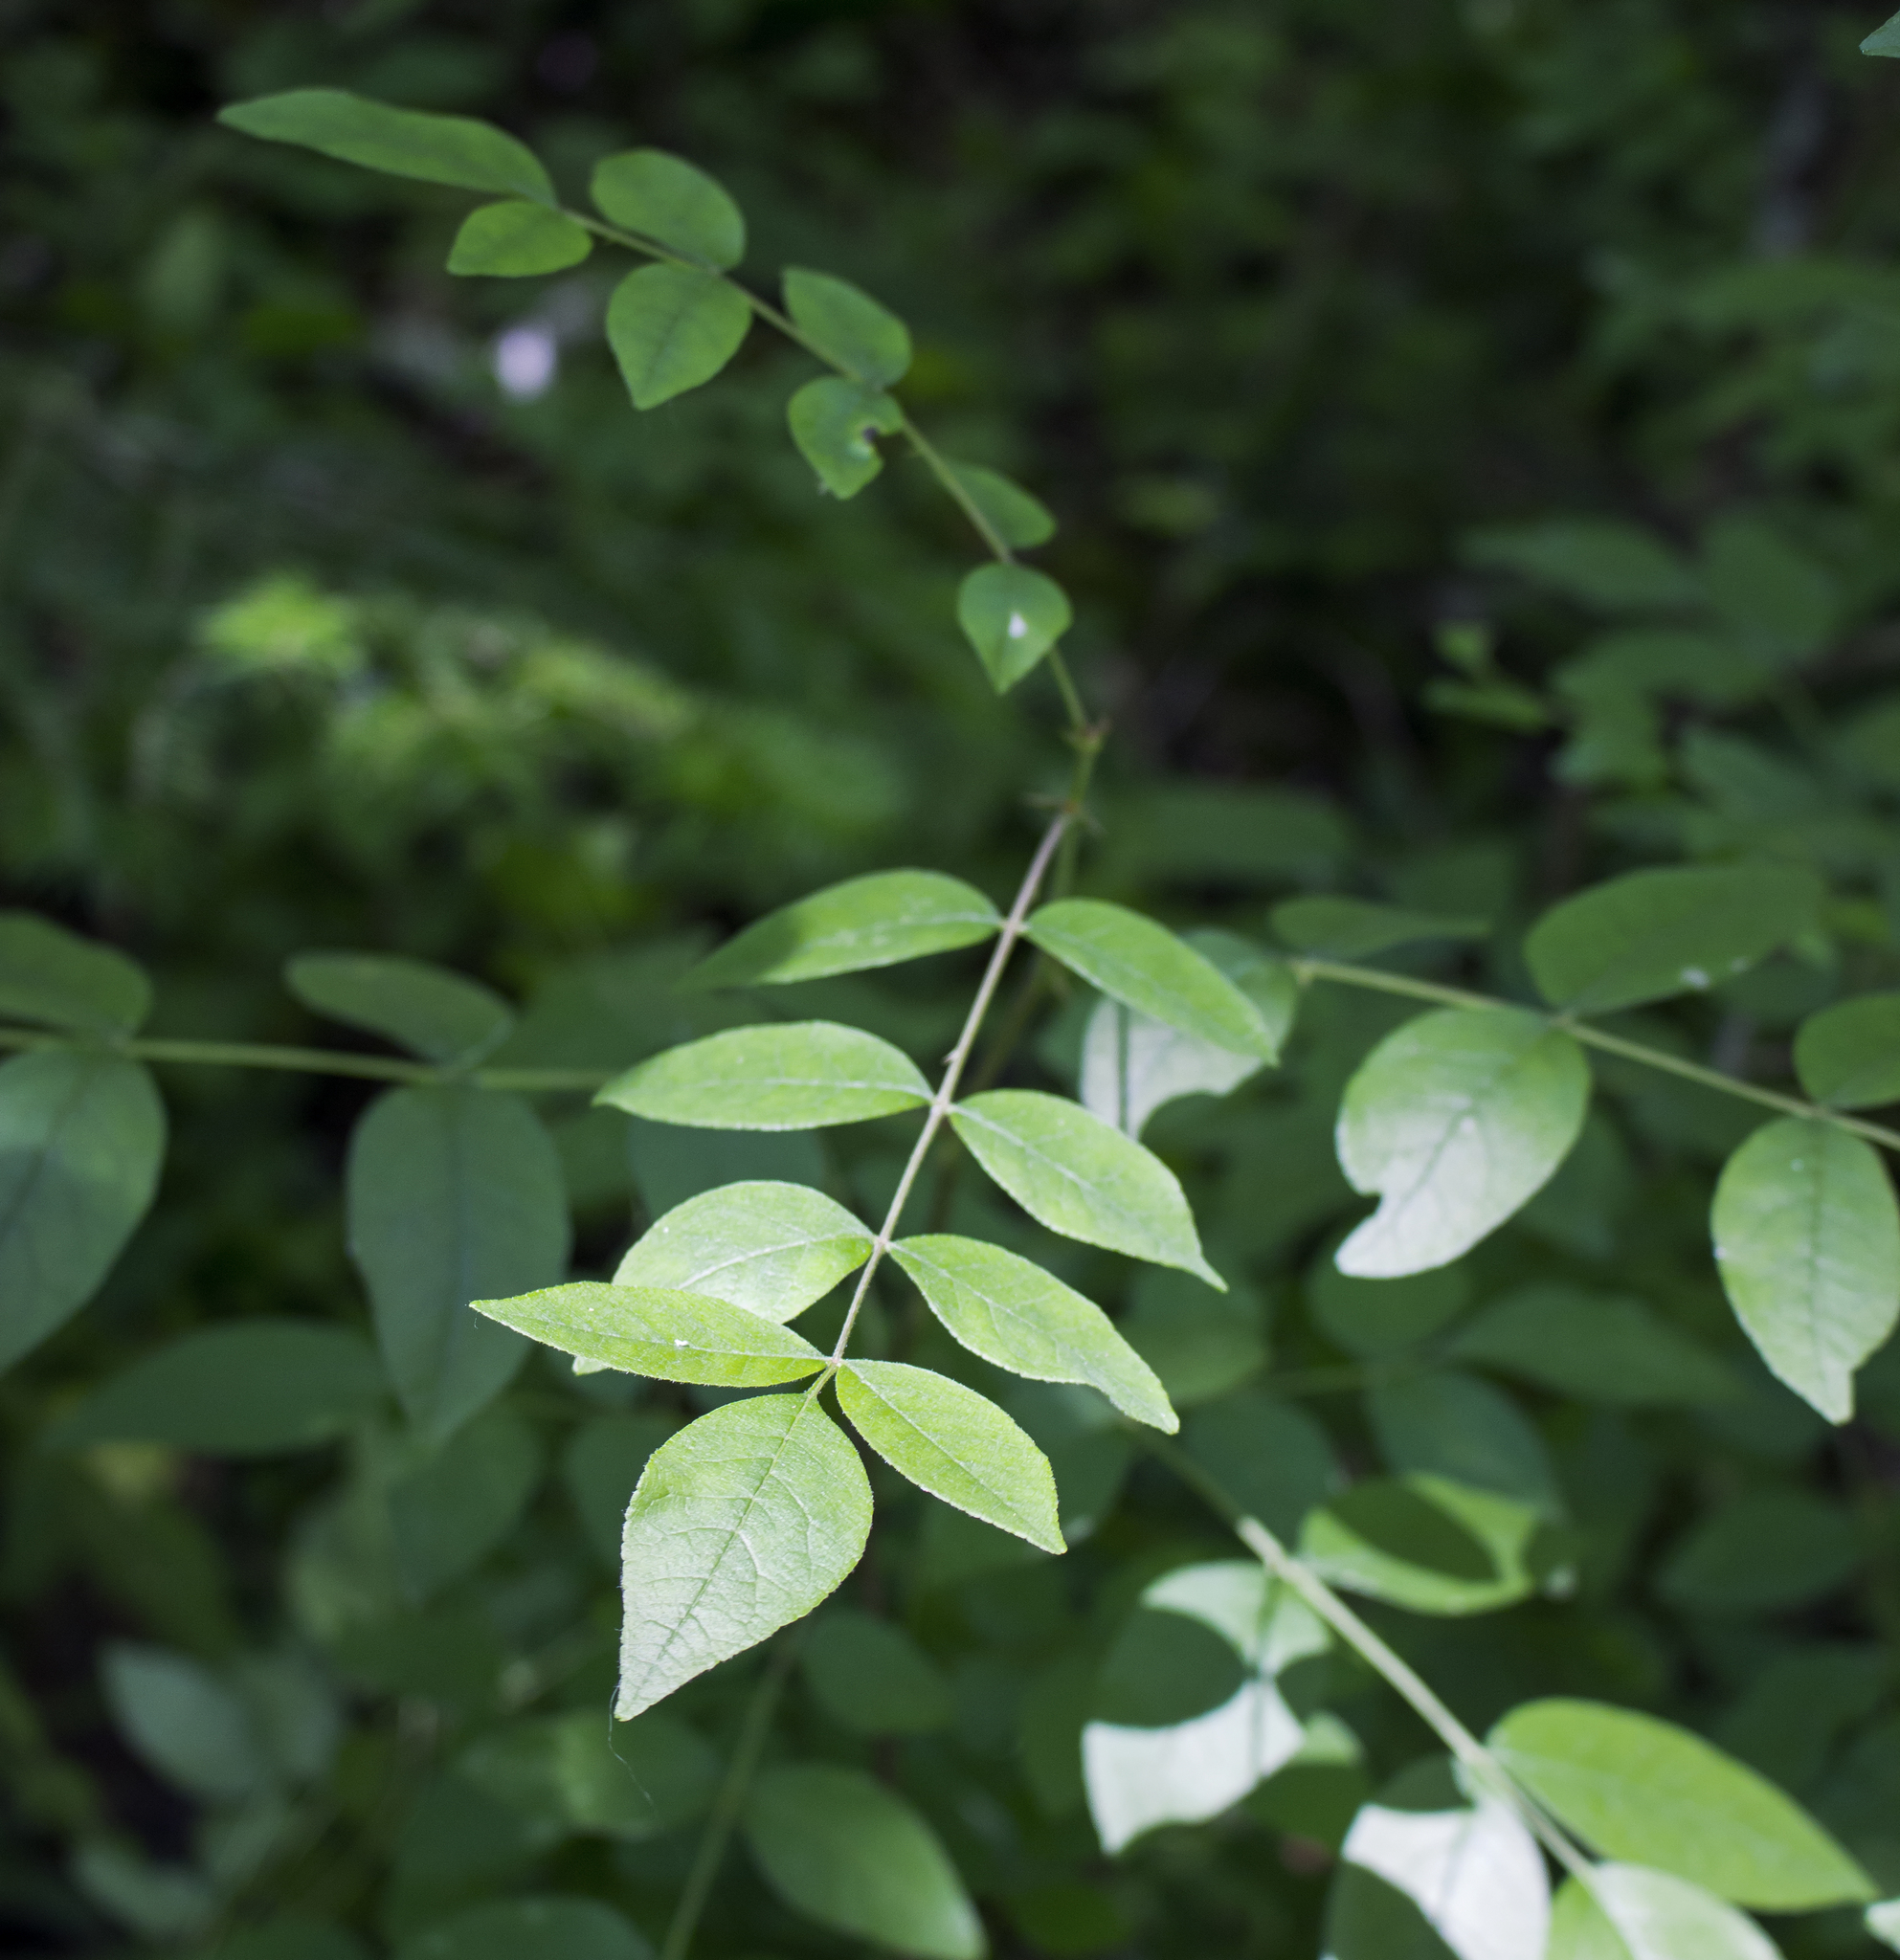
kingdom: Plantae
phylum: Tracheophyta
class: Magnoliopsida
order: Sapindales
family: Rutaceae
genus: Zanthoxylum
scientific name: Zanthoxylum americanum
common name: Northern prickly-ash
